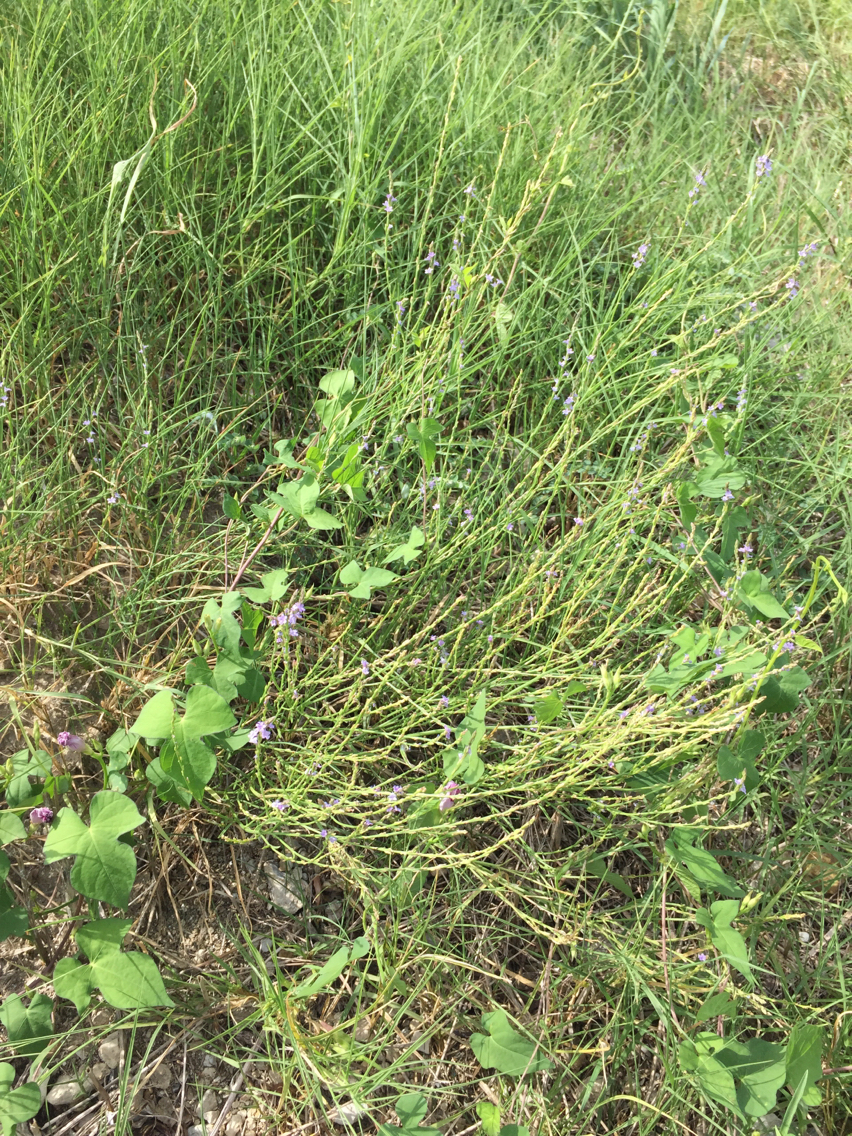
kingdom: Plantae
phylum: Tracheophyta
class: Magnoliopsida
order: Lamiales
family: Verbenaceae
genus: Verbena
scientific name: Verbena halei
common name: Texas vervain
